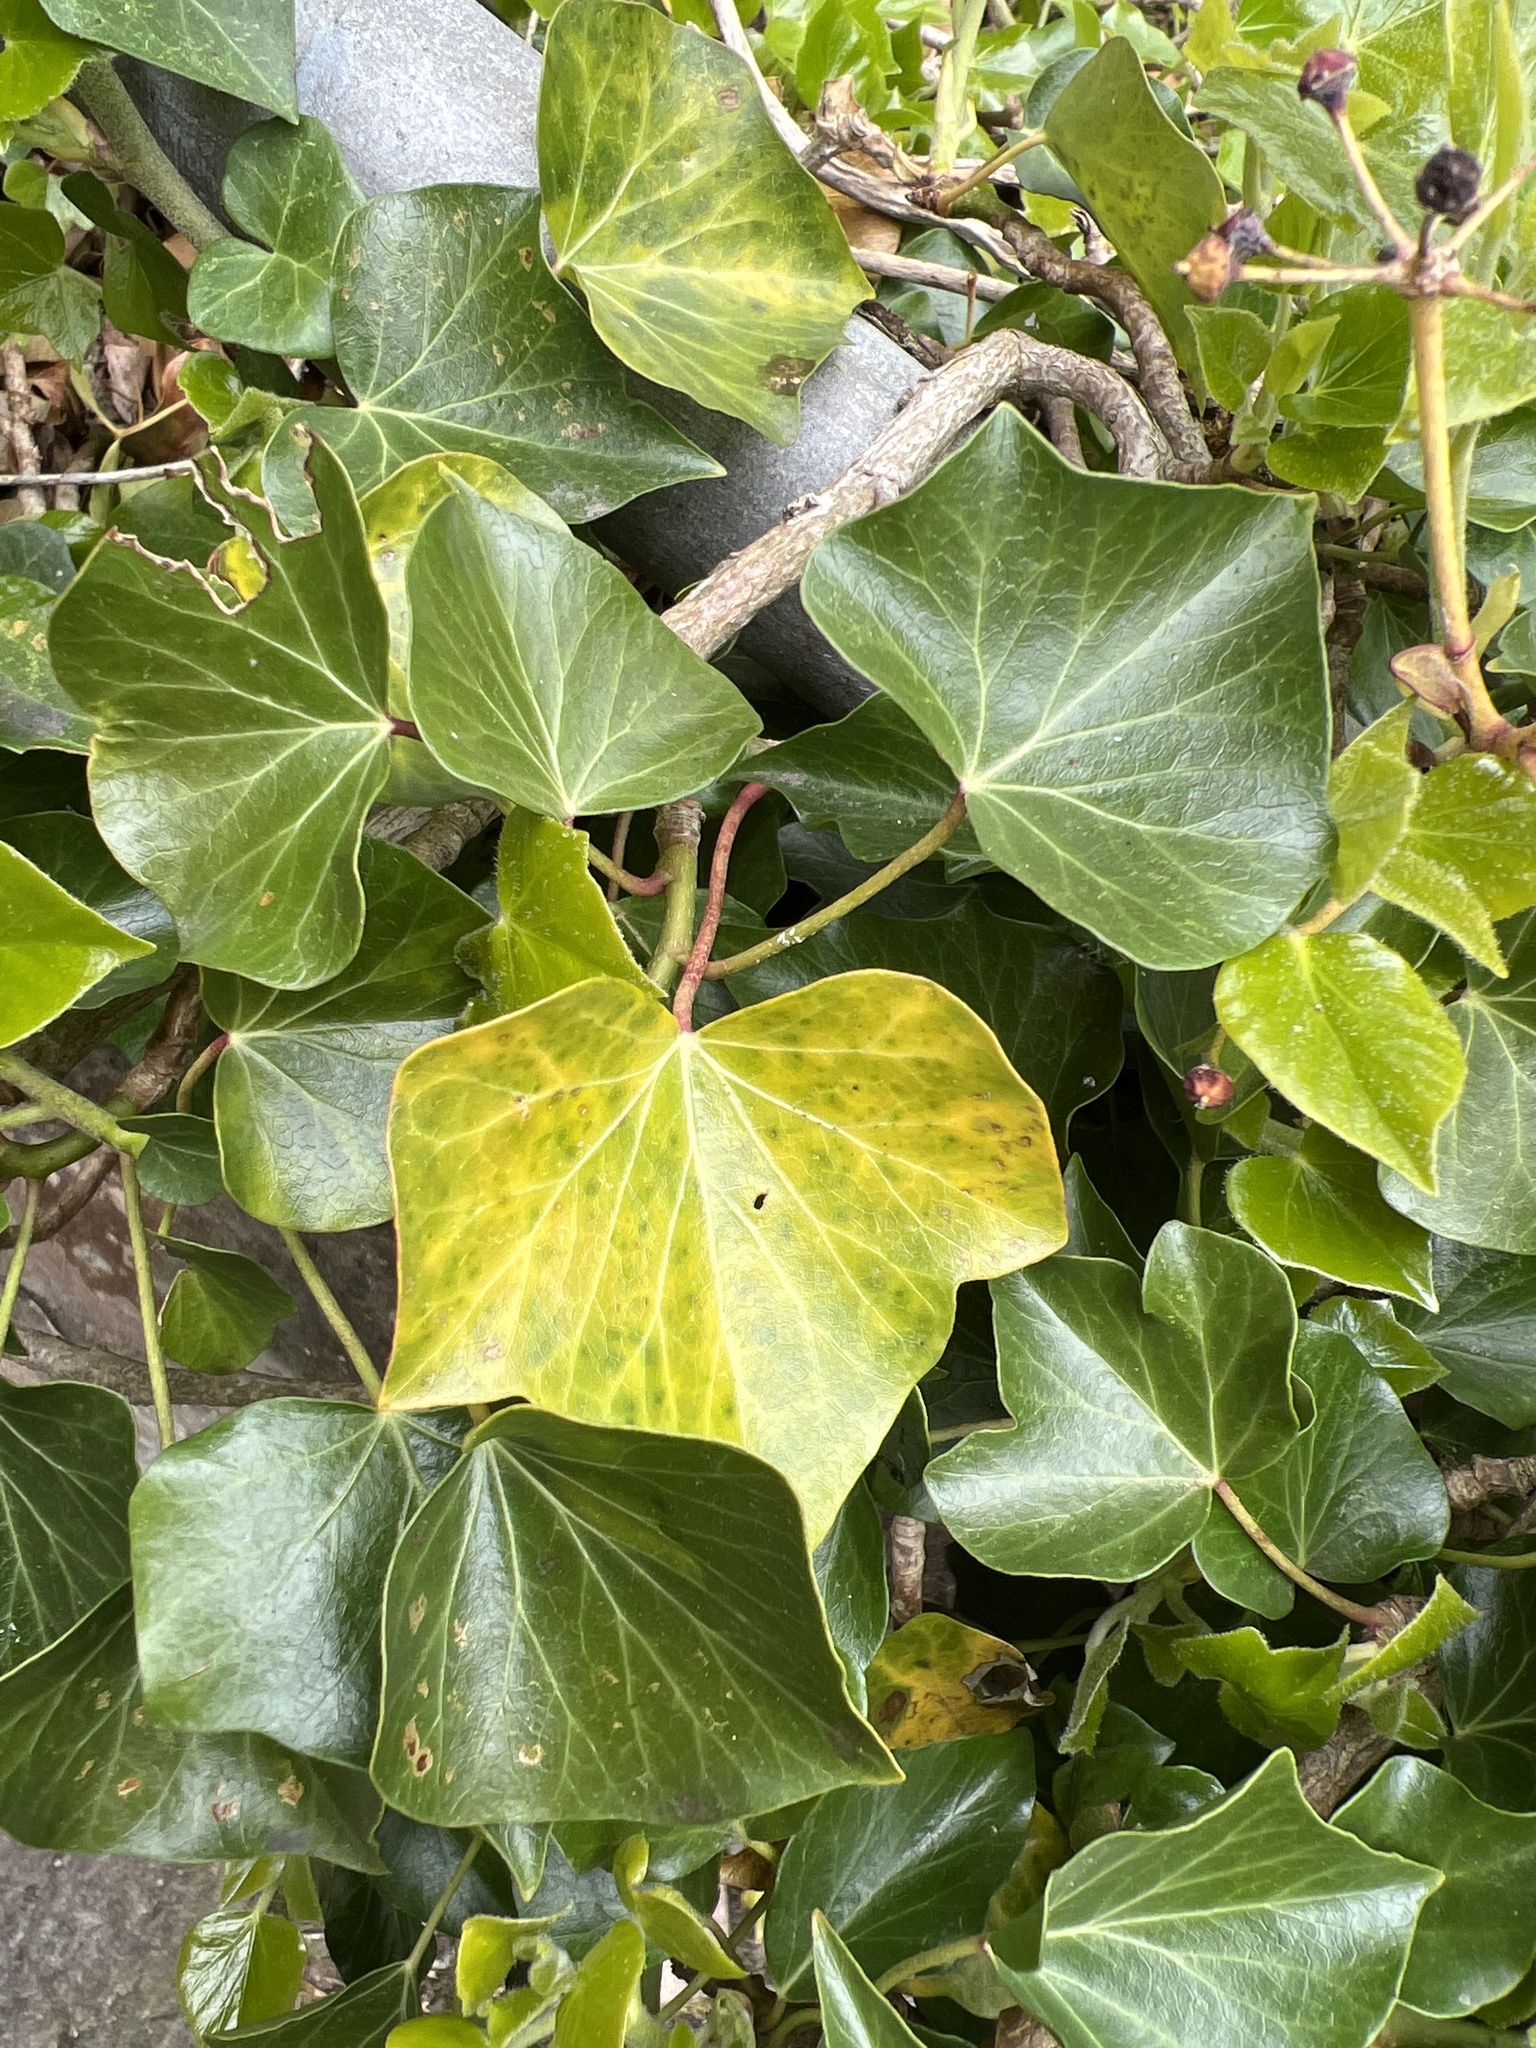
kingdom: Plantae
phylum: Tracheophyta
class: Magnoliopsida
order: Apiales
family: Araliaceae
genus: Hedera
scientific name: Hedera helix
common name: Ivy
